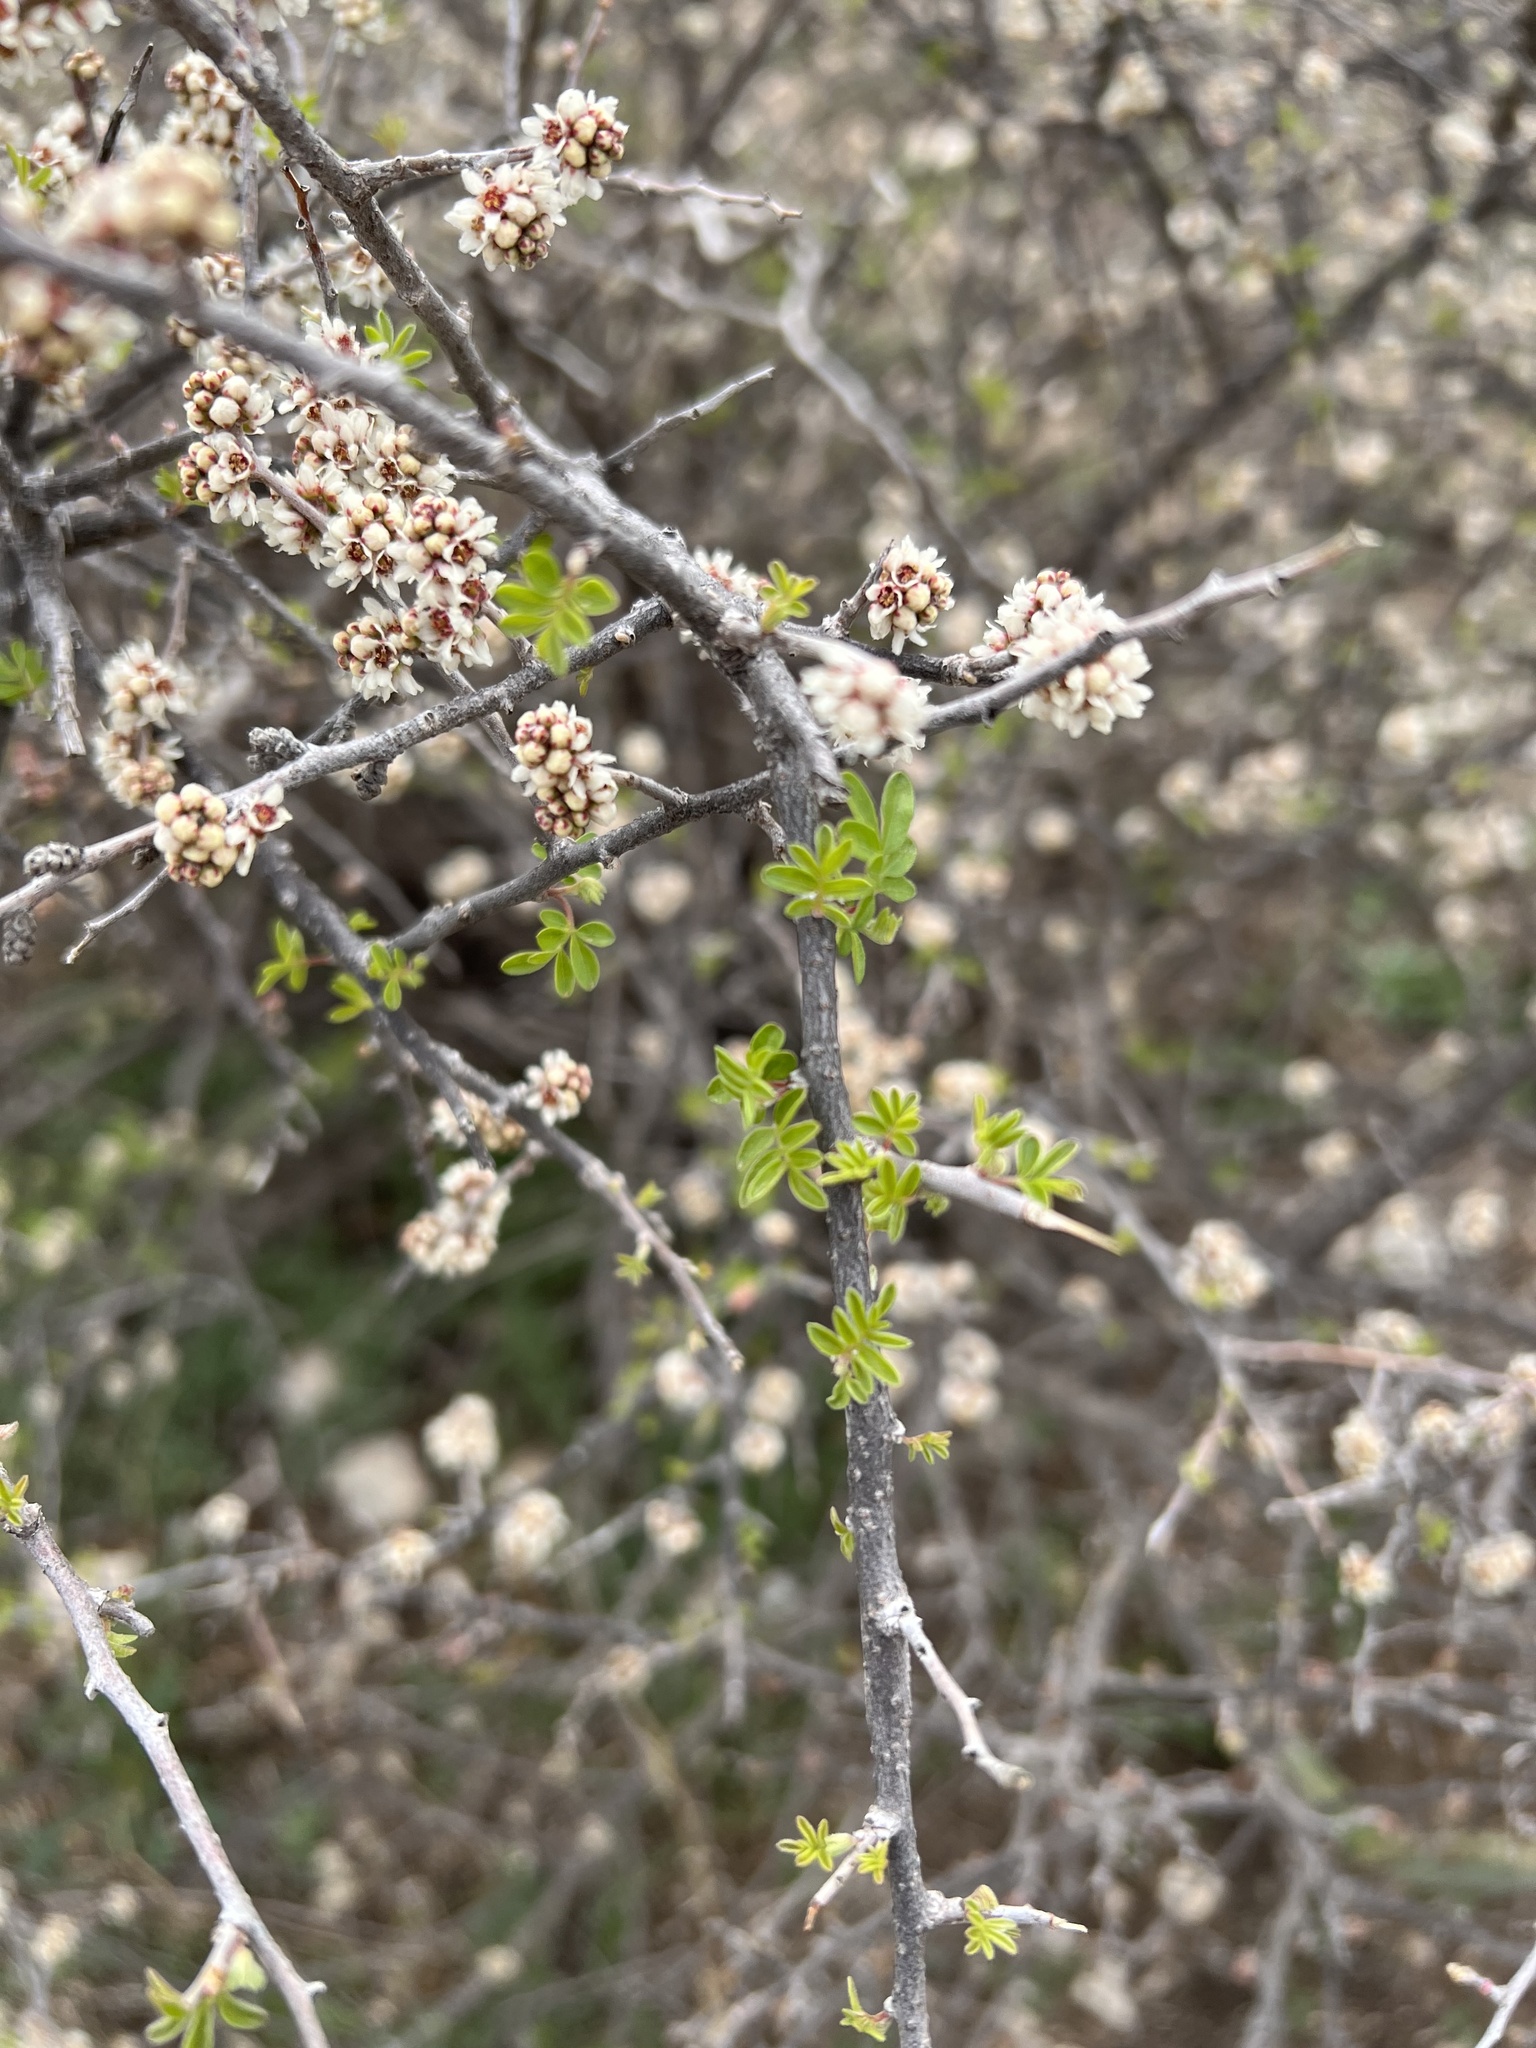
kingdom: Plantae
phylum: Tracheophyta
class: Magnoliopsida
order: Sapindales
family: Anacardiaceae
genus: Rhus
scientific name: Rhus microphylla
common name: Desert sumac
